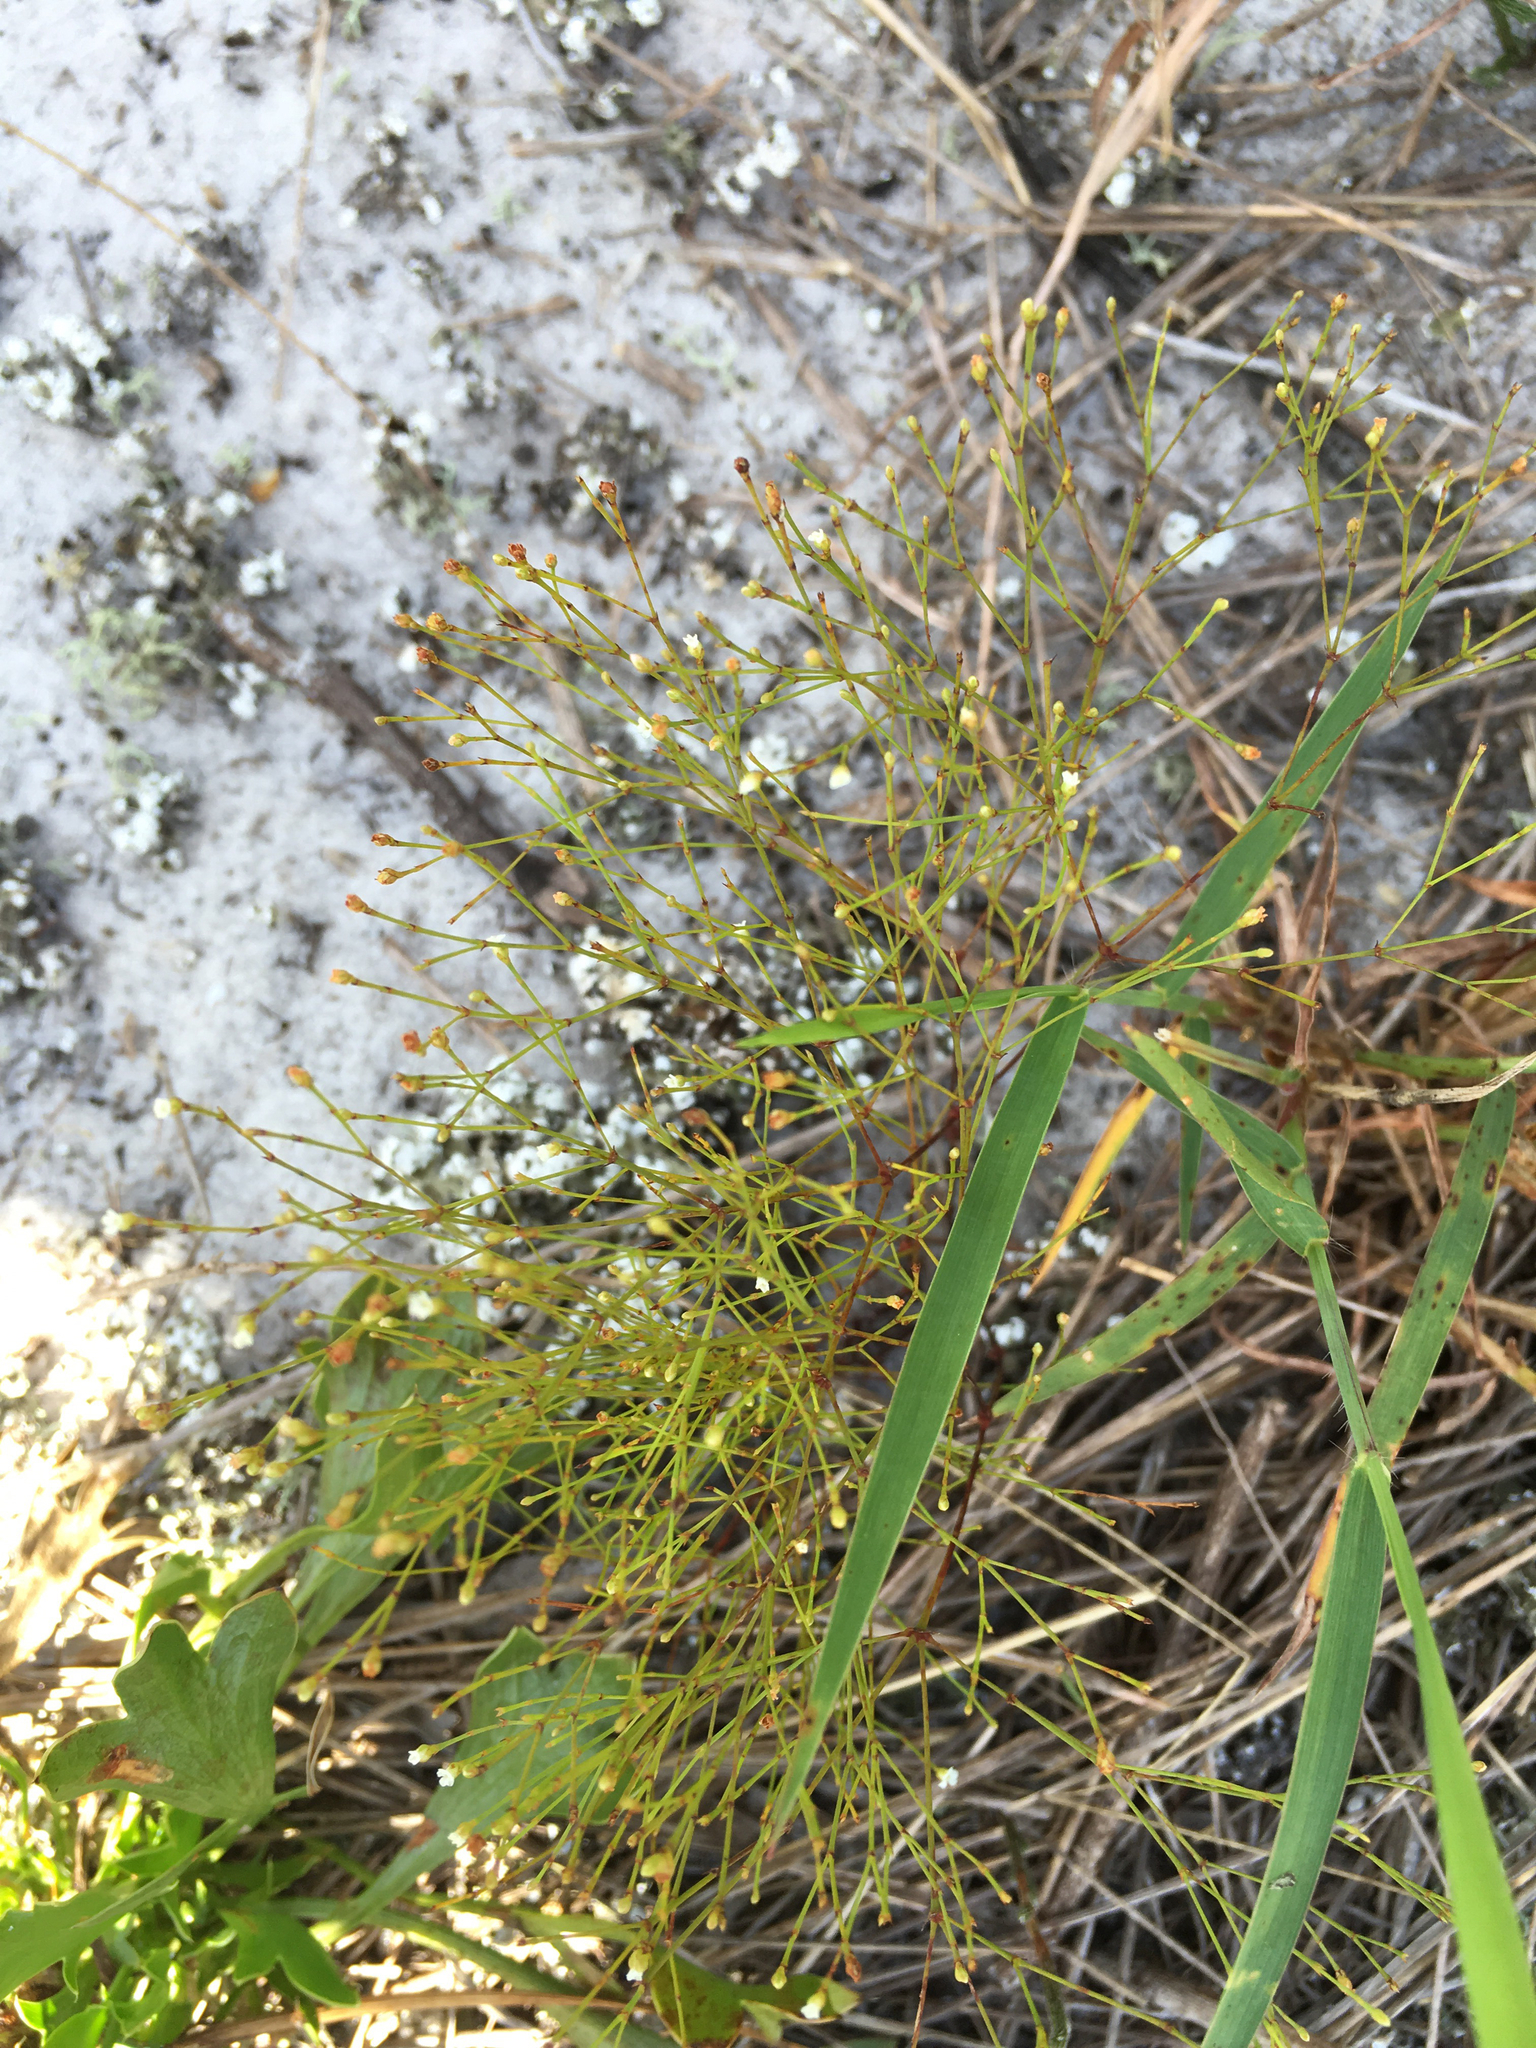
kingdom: Plantae
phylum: Tracheophyta
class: Magnoliopsida
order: Caryophyllales
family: Caryophyllaceae
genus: Stipulicida
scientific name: Stipulicida setacea
